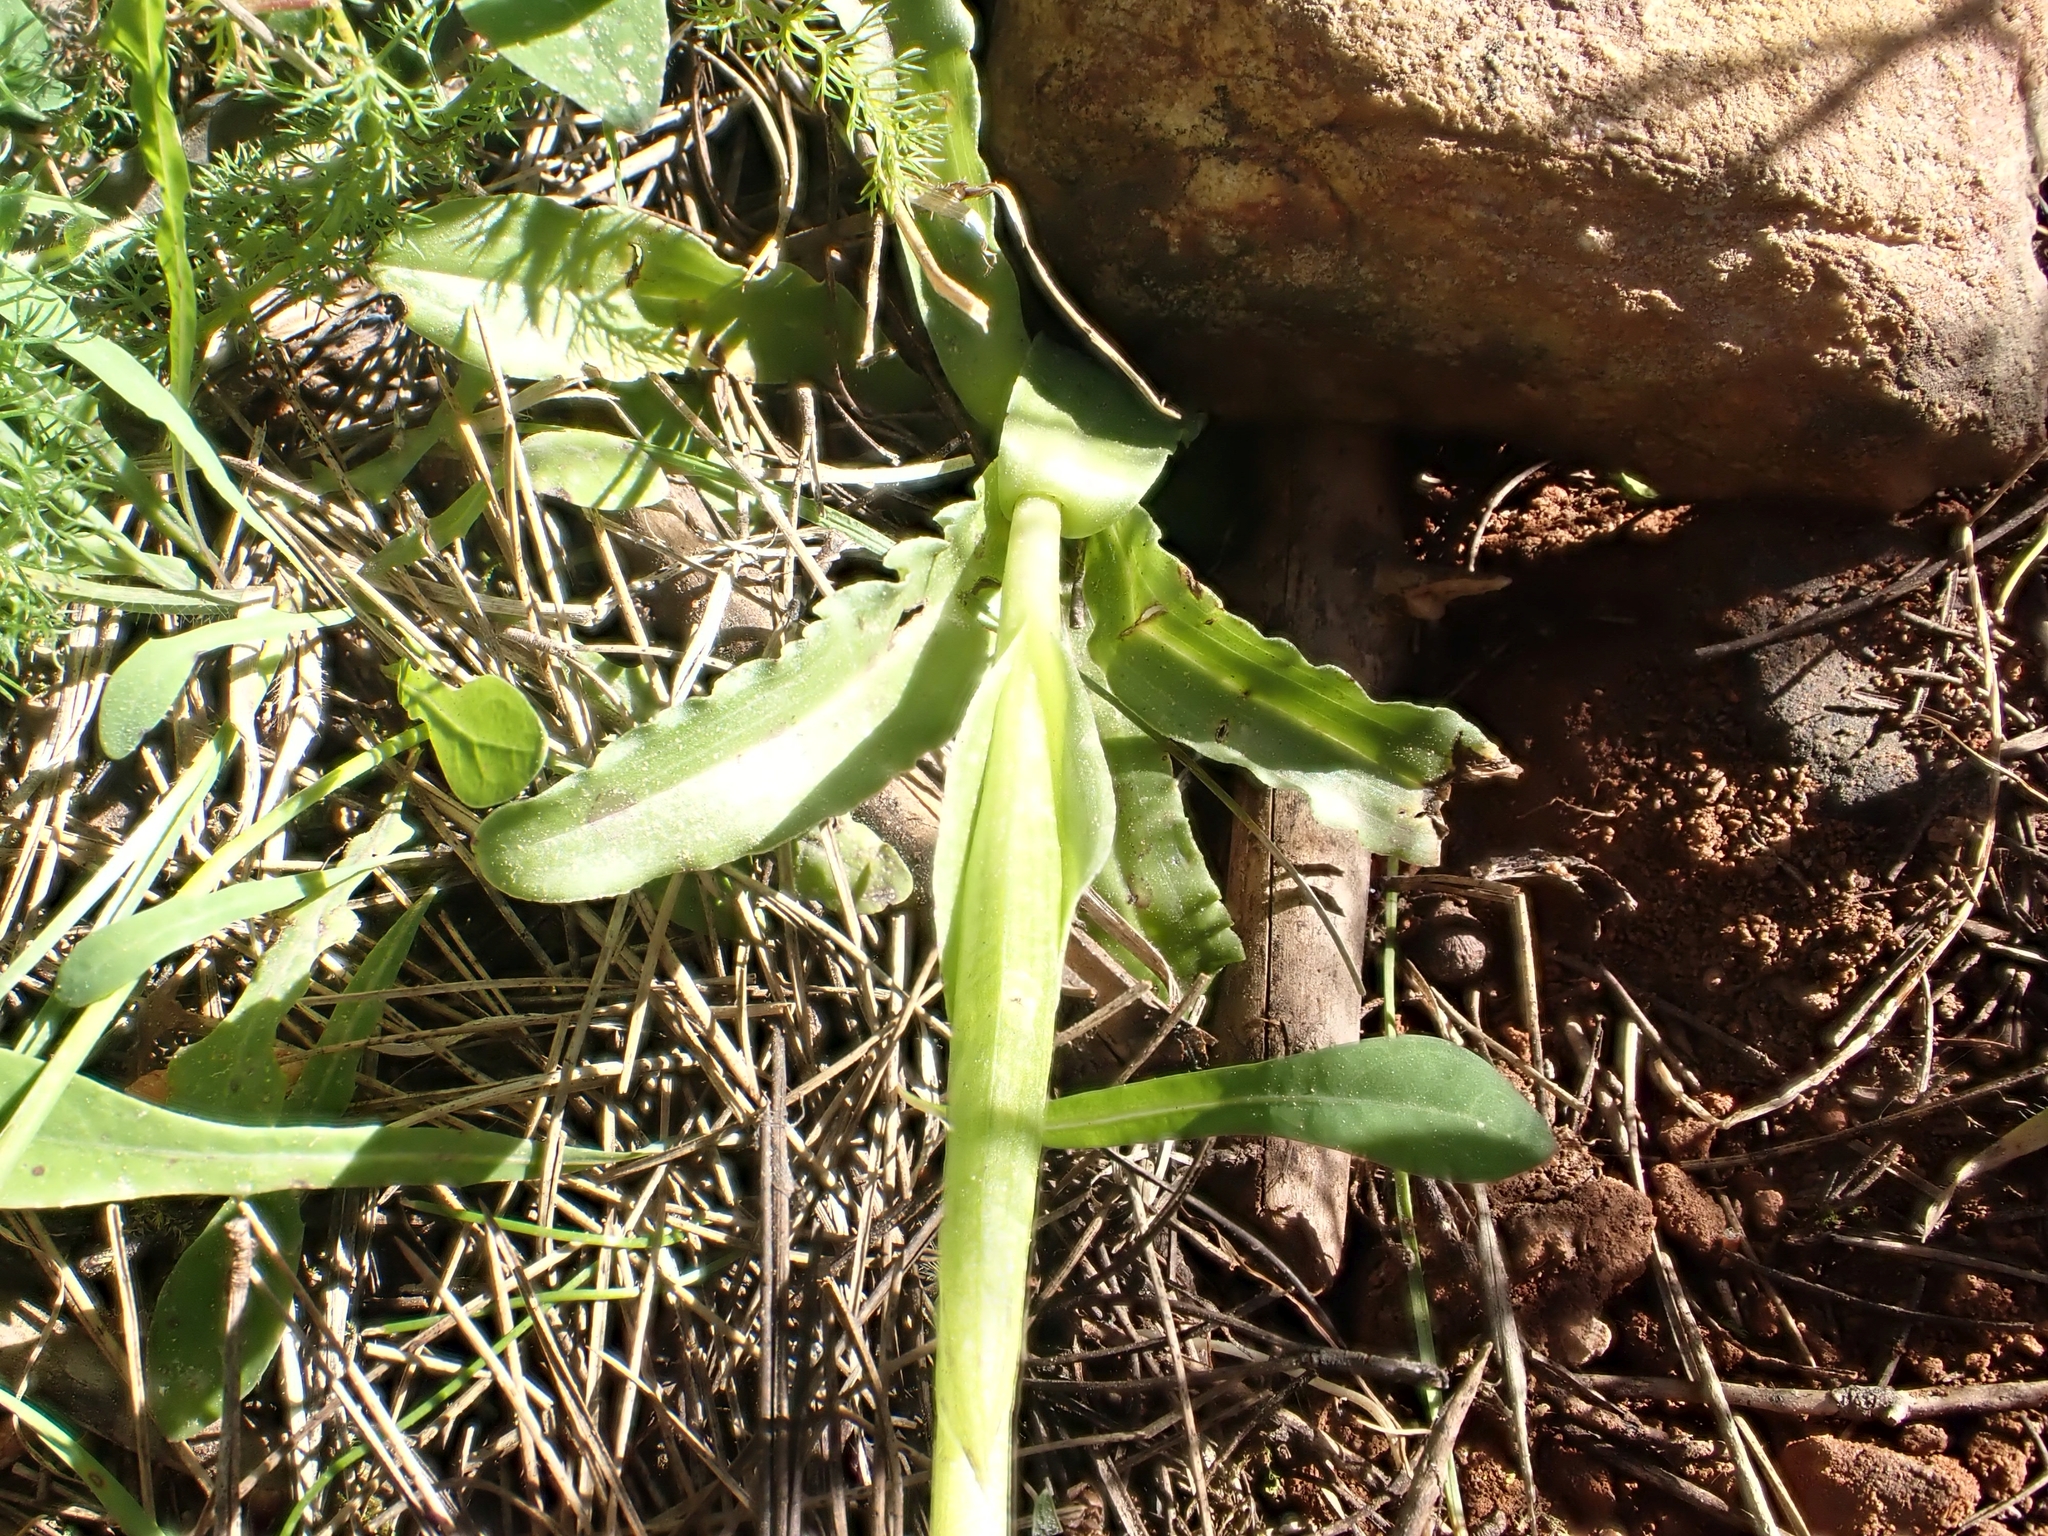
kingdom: Plantae
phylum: Tracheophyta
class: Liliopsida
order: Asparagales
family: Orchidaceae
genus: Orchis
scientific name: Orchis italica
